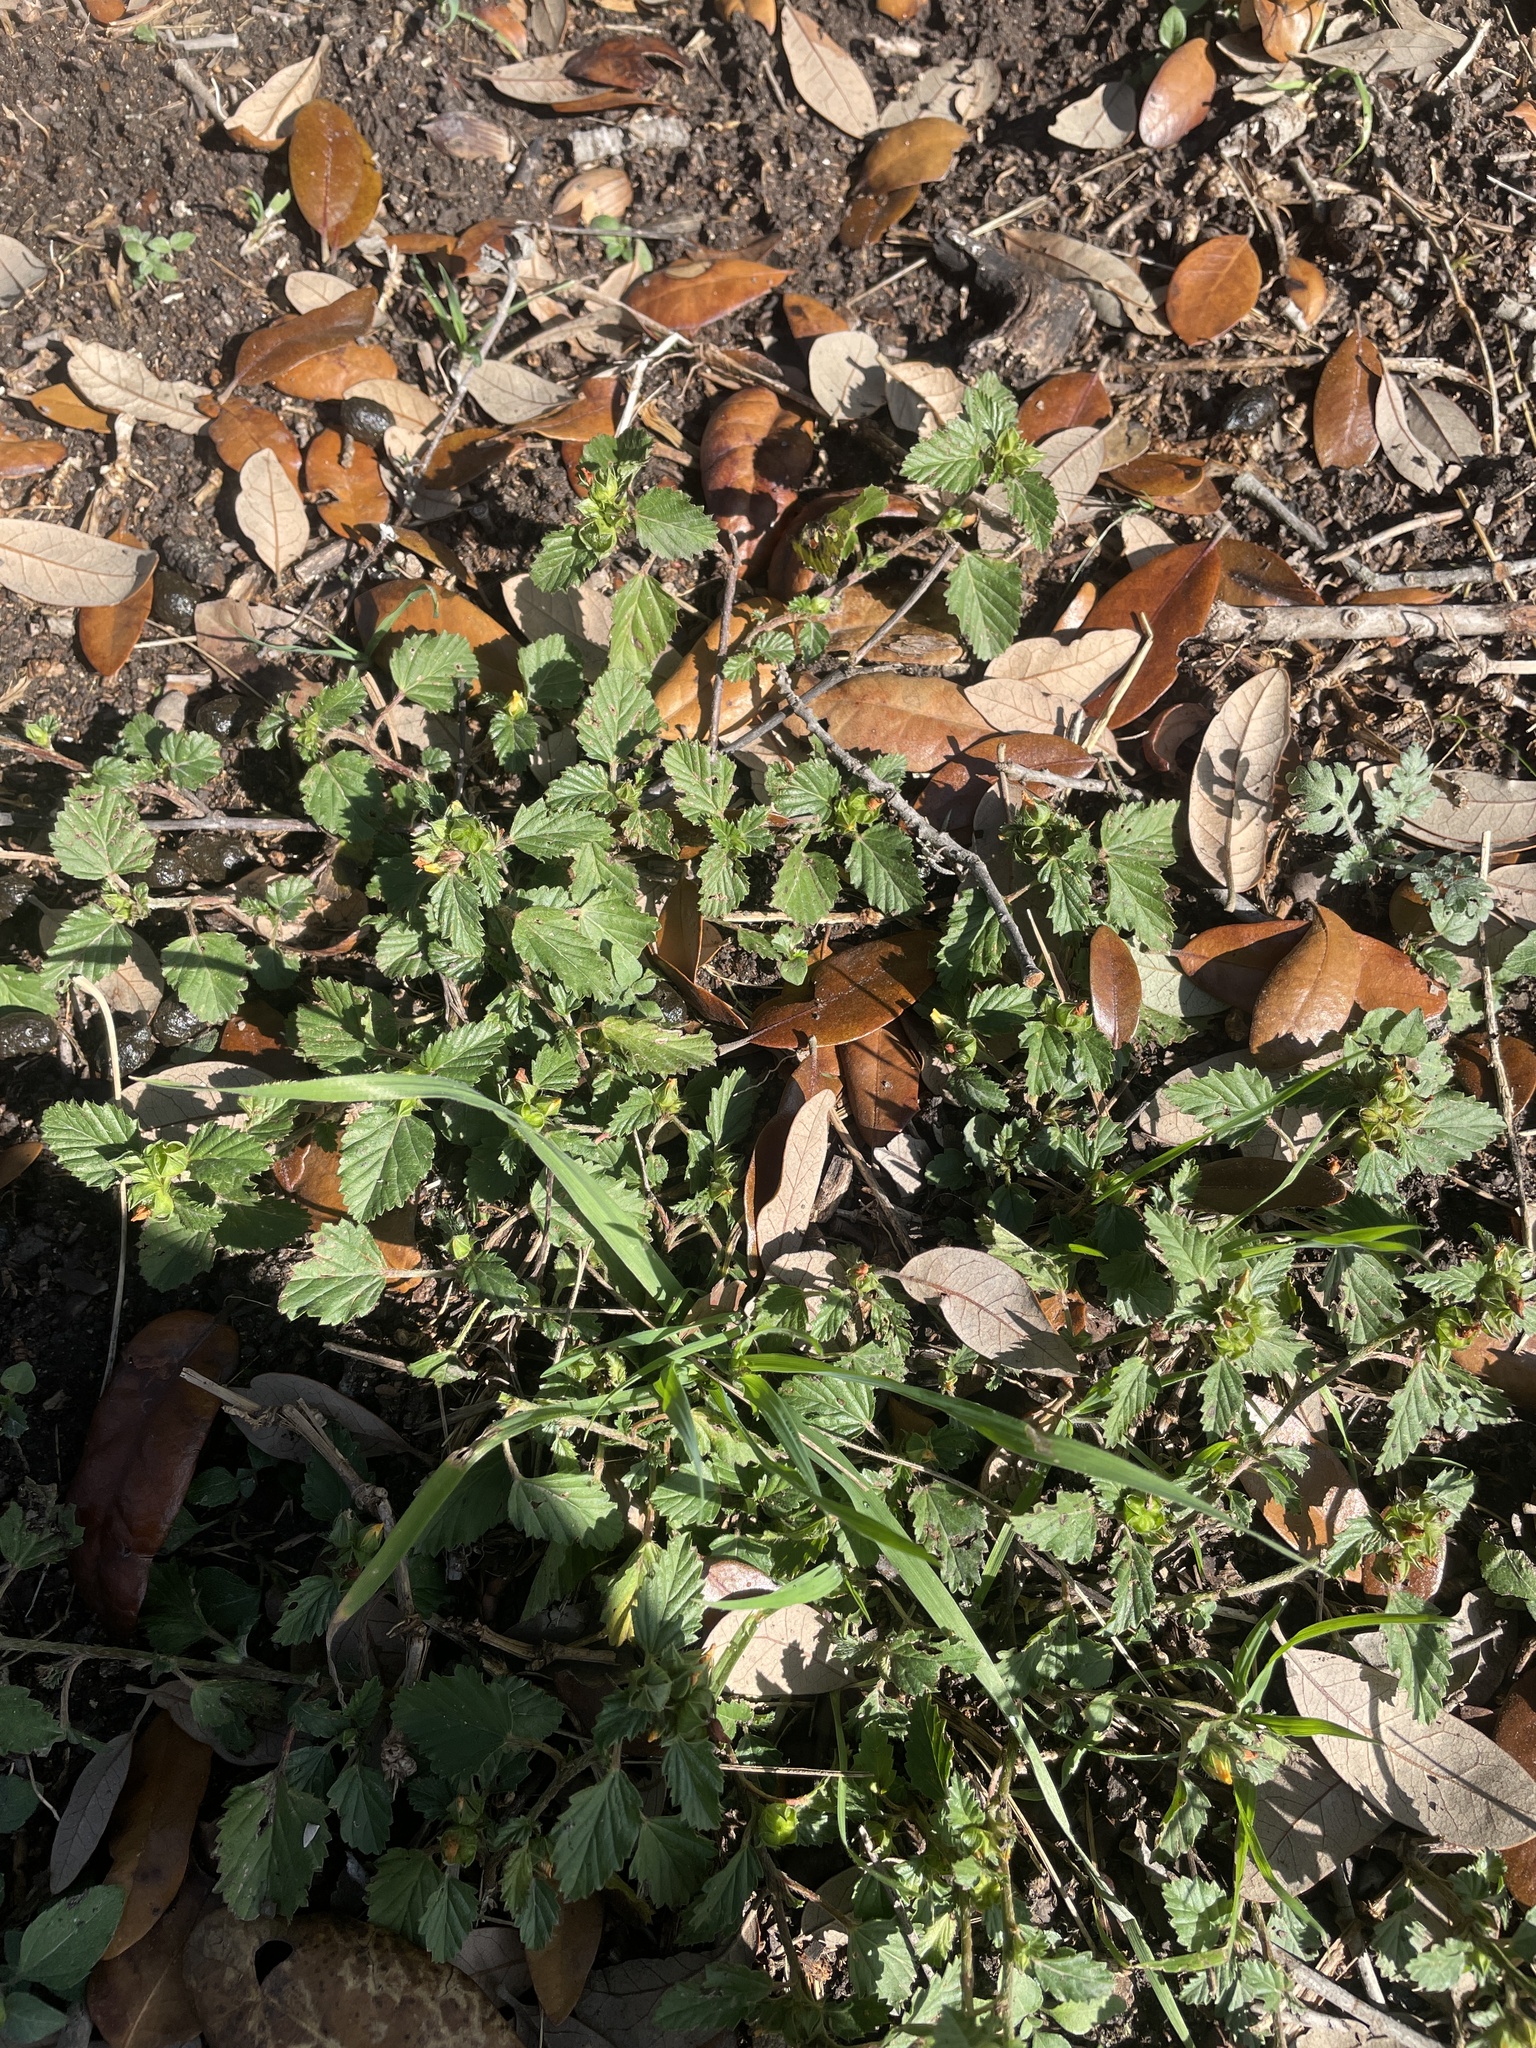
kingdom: Plantae
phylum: Tracheophyta
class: Magnoliopsida
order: Malvales
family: Malvaceae
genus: Malvastrum
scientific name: Malvastrum coromandelianum
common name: Threelobe false mallow
